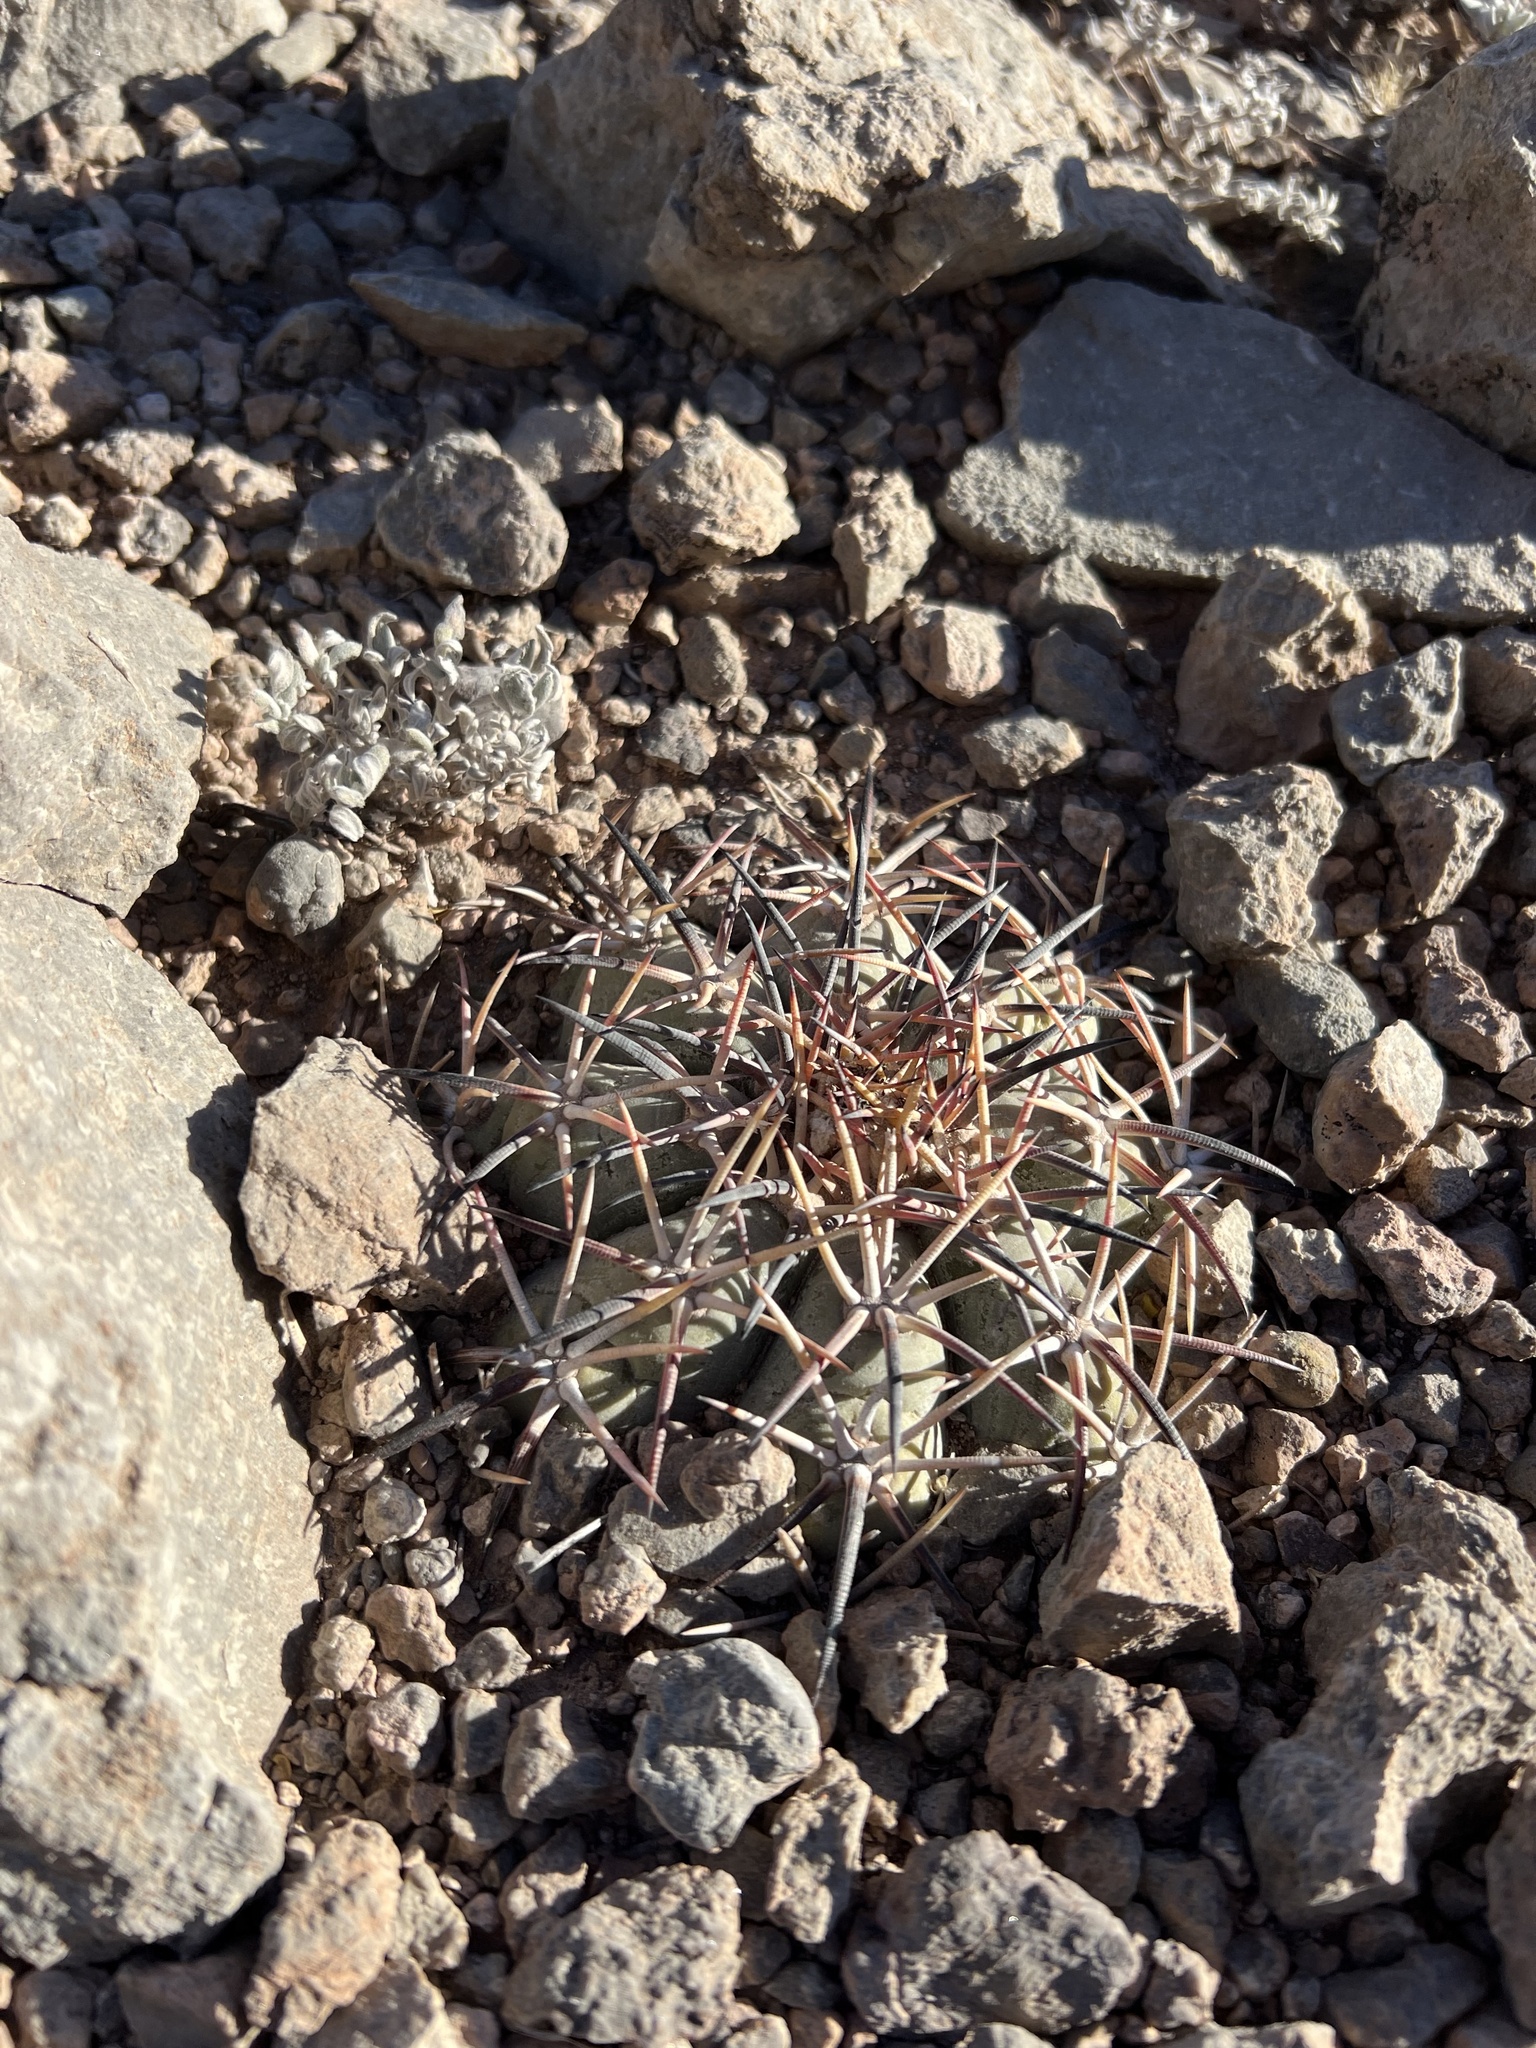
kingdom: Plantae
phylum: Tracheophyta
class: Magnoliopsida
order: Caryophyllales
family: Cactaceae
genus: Echinocactus
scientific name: Echinocactus horizonthalonius
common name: Devilshead
